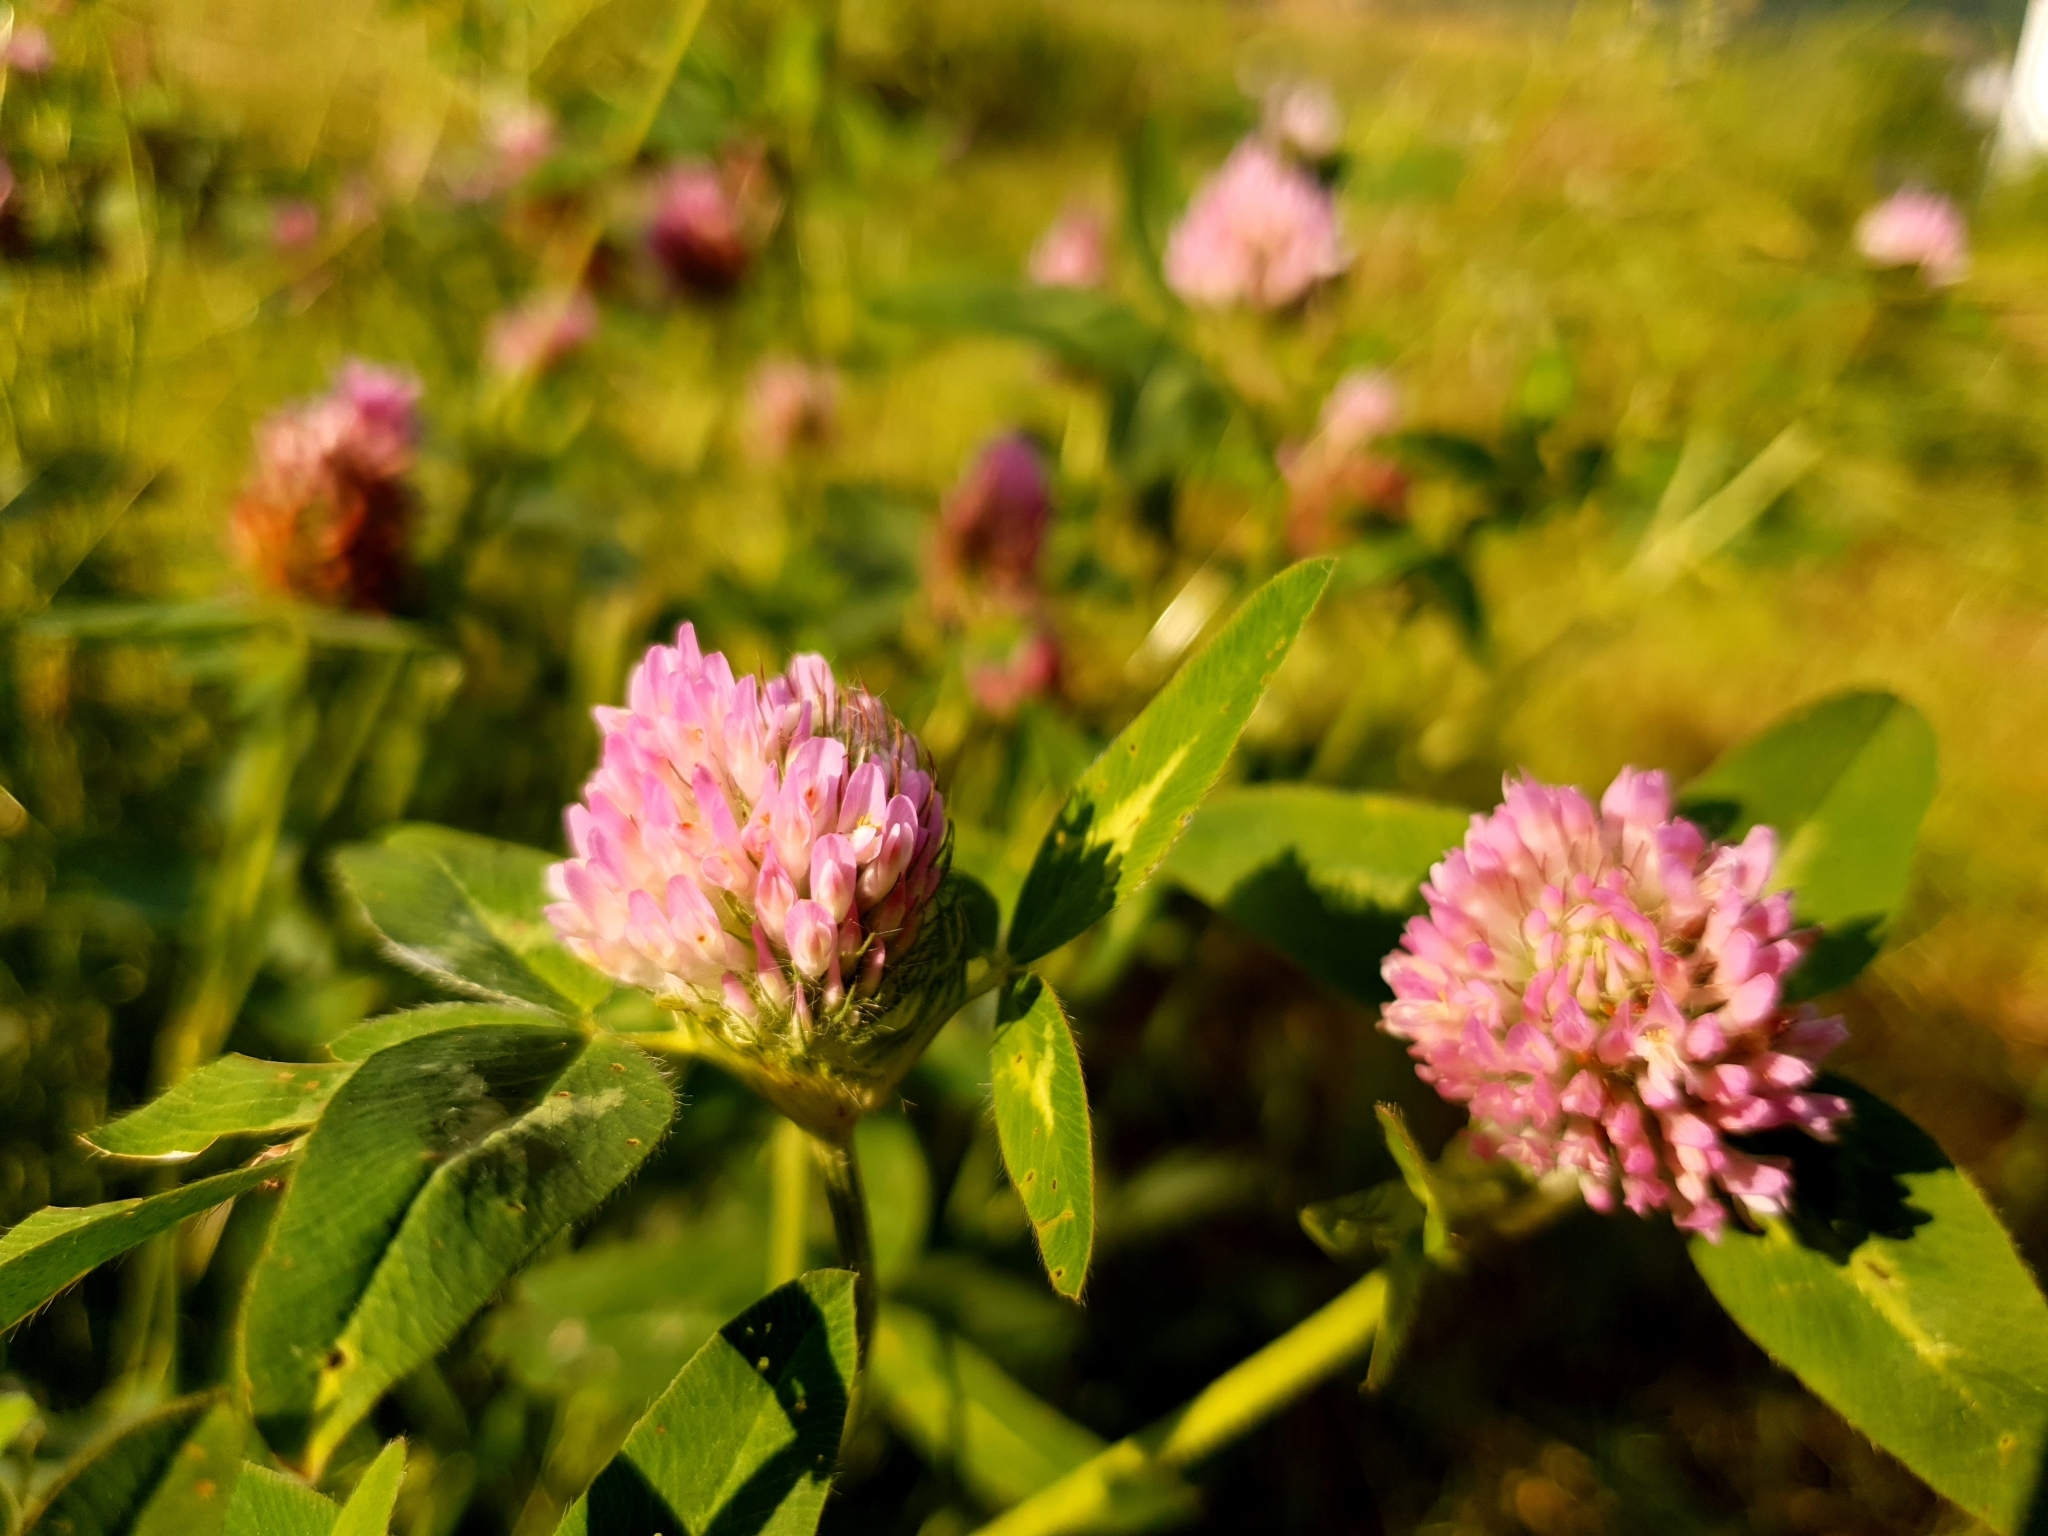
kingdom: Plantae
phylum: Tracheophyta
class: Magnoliopsida
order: Fabales
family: Fabaceae
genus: Trifolium
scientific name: Trifolium pratense
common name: Red clover
